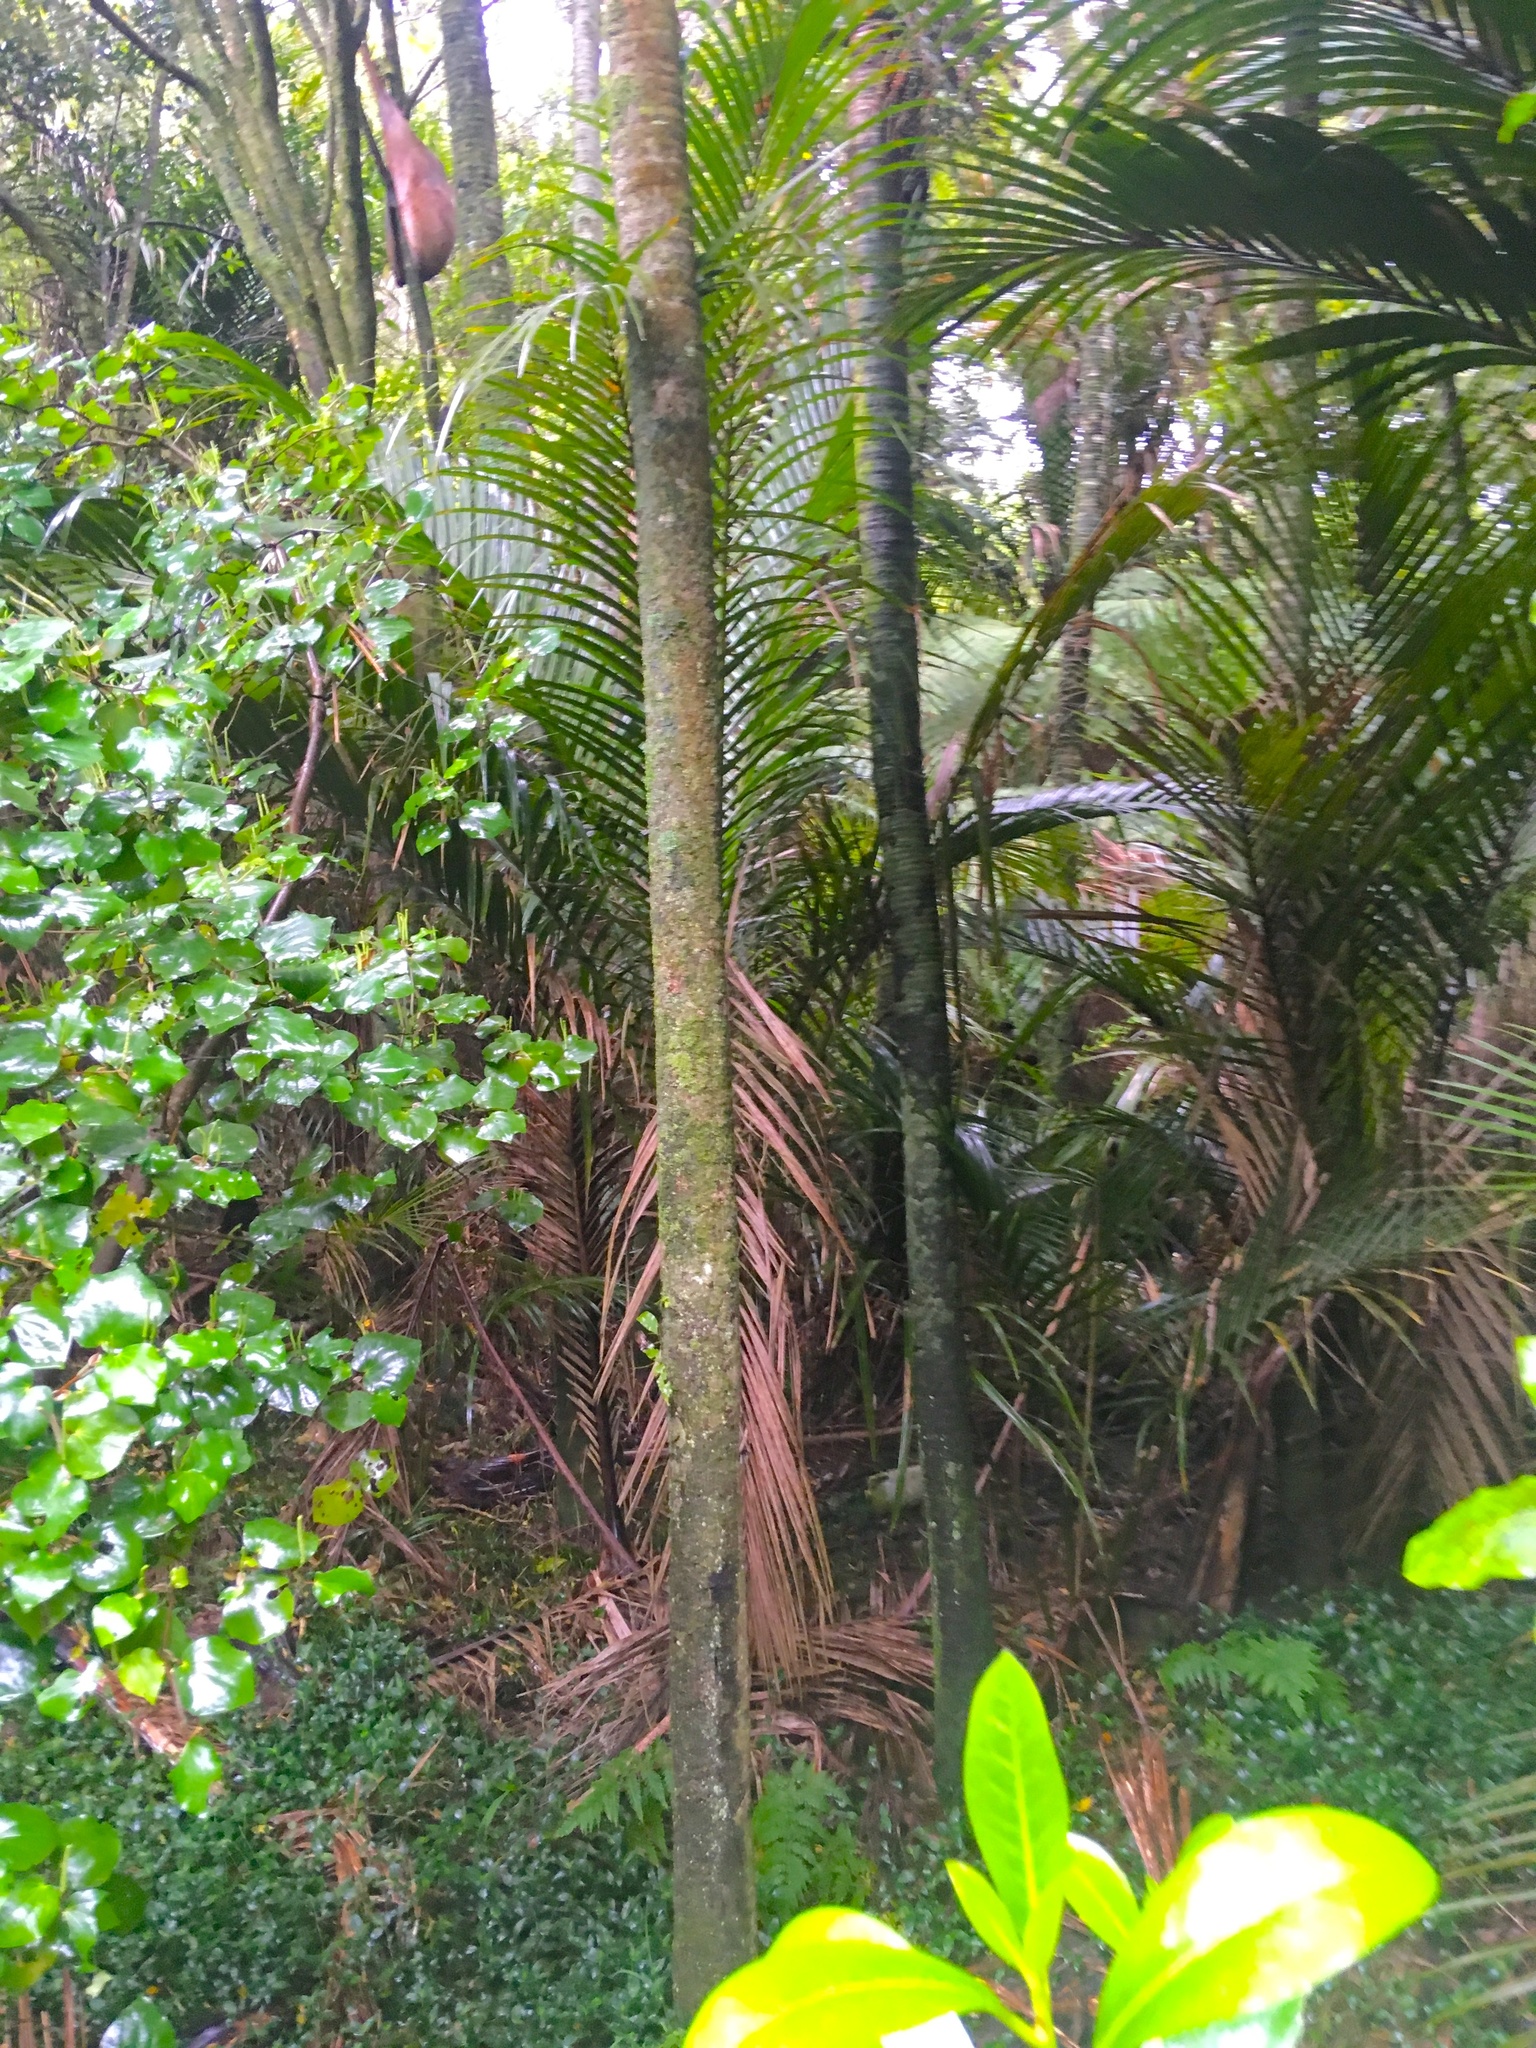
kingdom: Plantae
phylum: Tracheophyta
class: Liliopsida
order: Arecales
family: Arecaceae
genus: Rhopalostylis
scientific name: Rhopalostylis sapida
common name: Feather-duster palm
